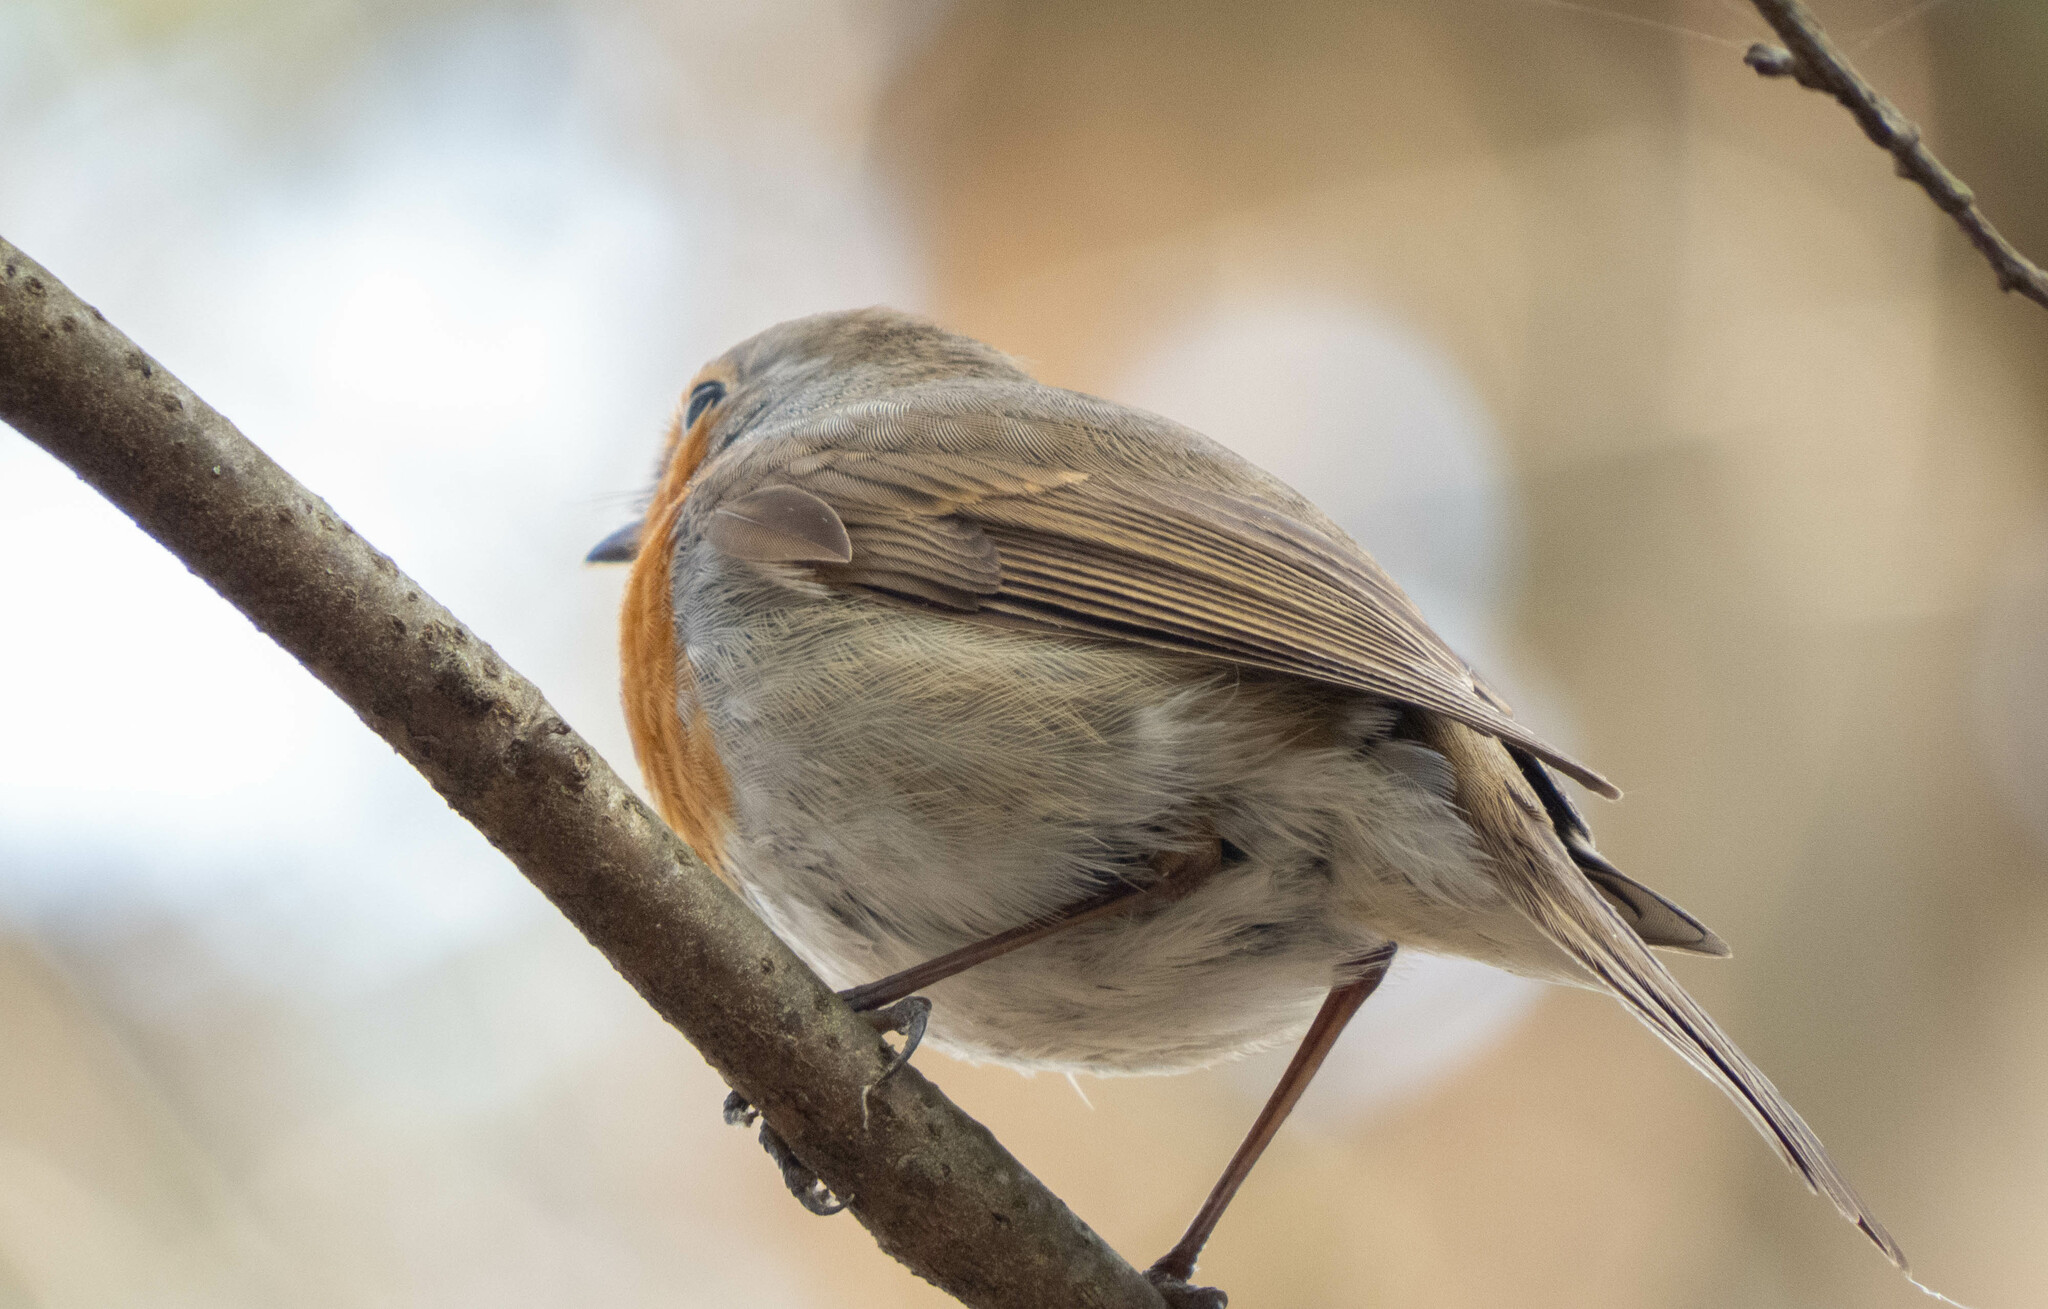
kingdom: Animalia
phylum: Chordata
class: Aves
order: Passeriformes
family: Muscicapidae
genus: Erithacus
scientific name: Erithacus rubecula
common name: European robin
